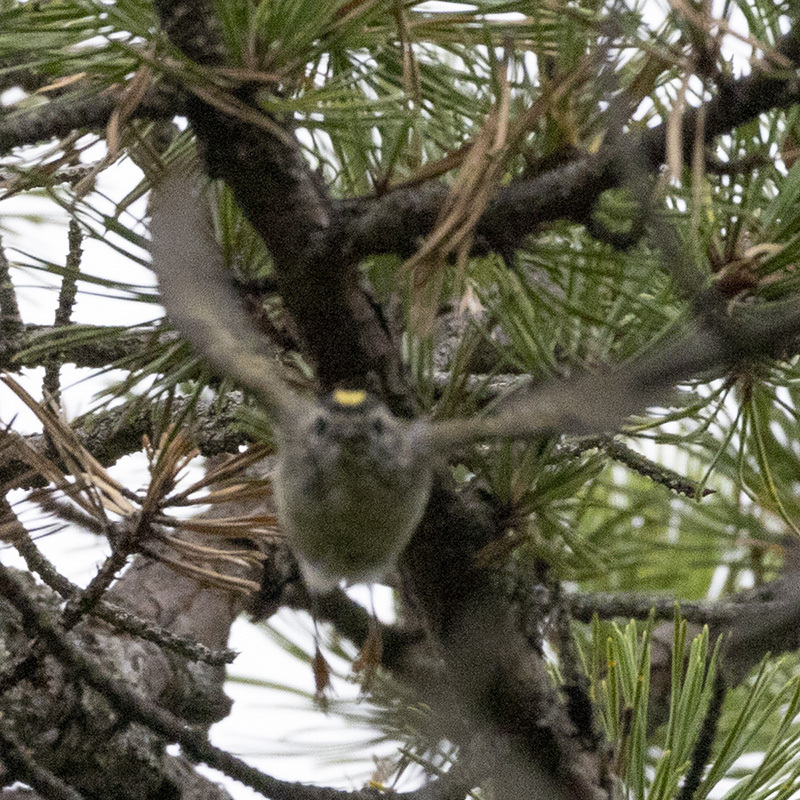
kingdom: Animalia
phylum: Chordata
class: Aves
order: Passeriformes
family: Regulidae
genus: Regulus
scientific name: Regulus satrapa
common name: Golden-crowned kinglet
